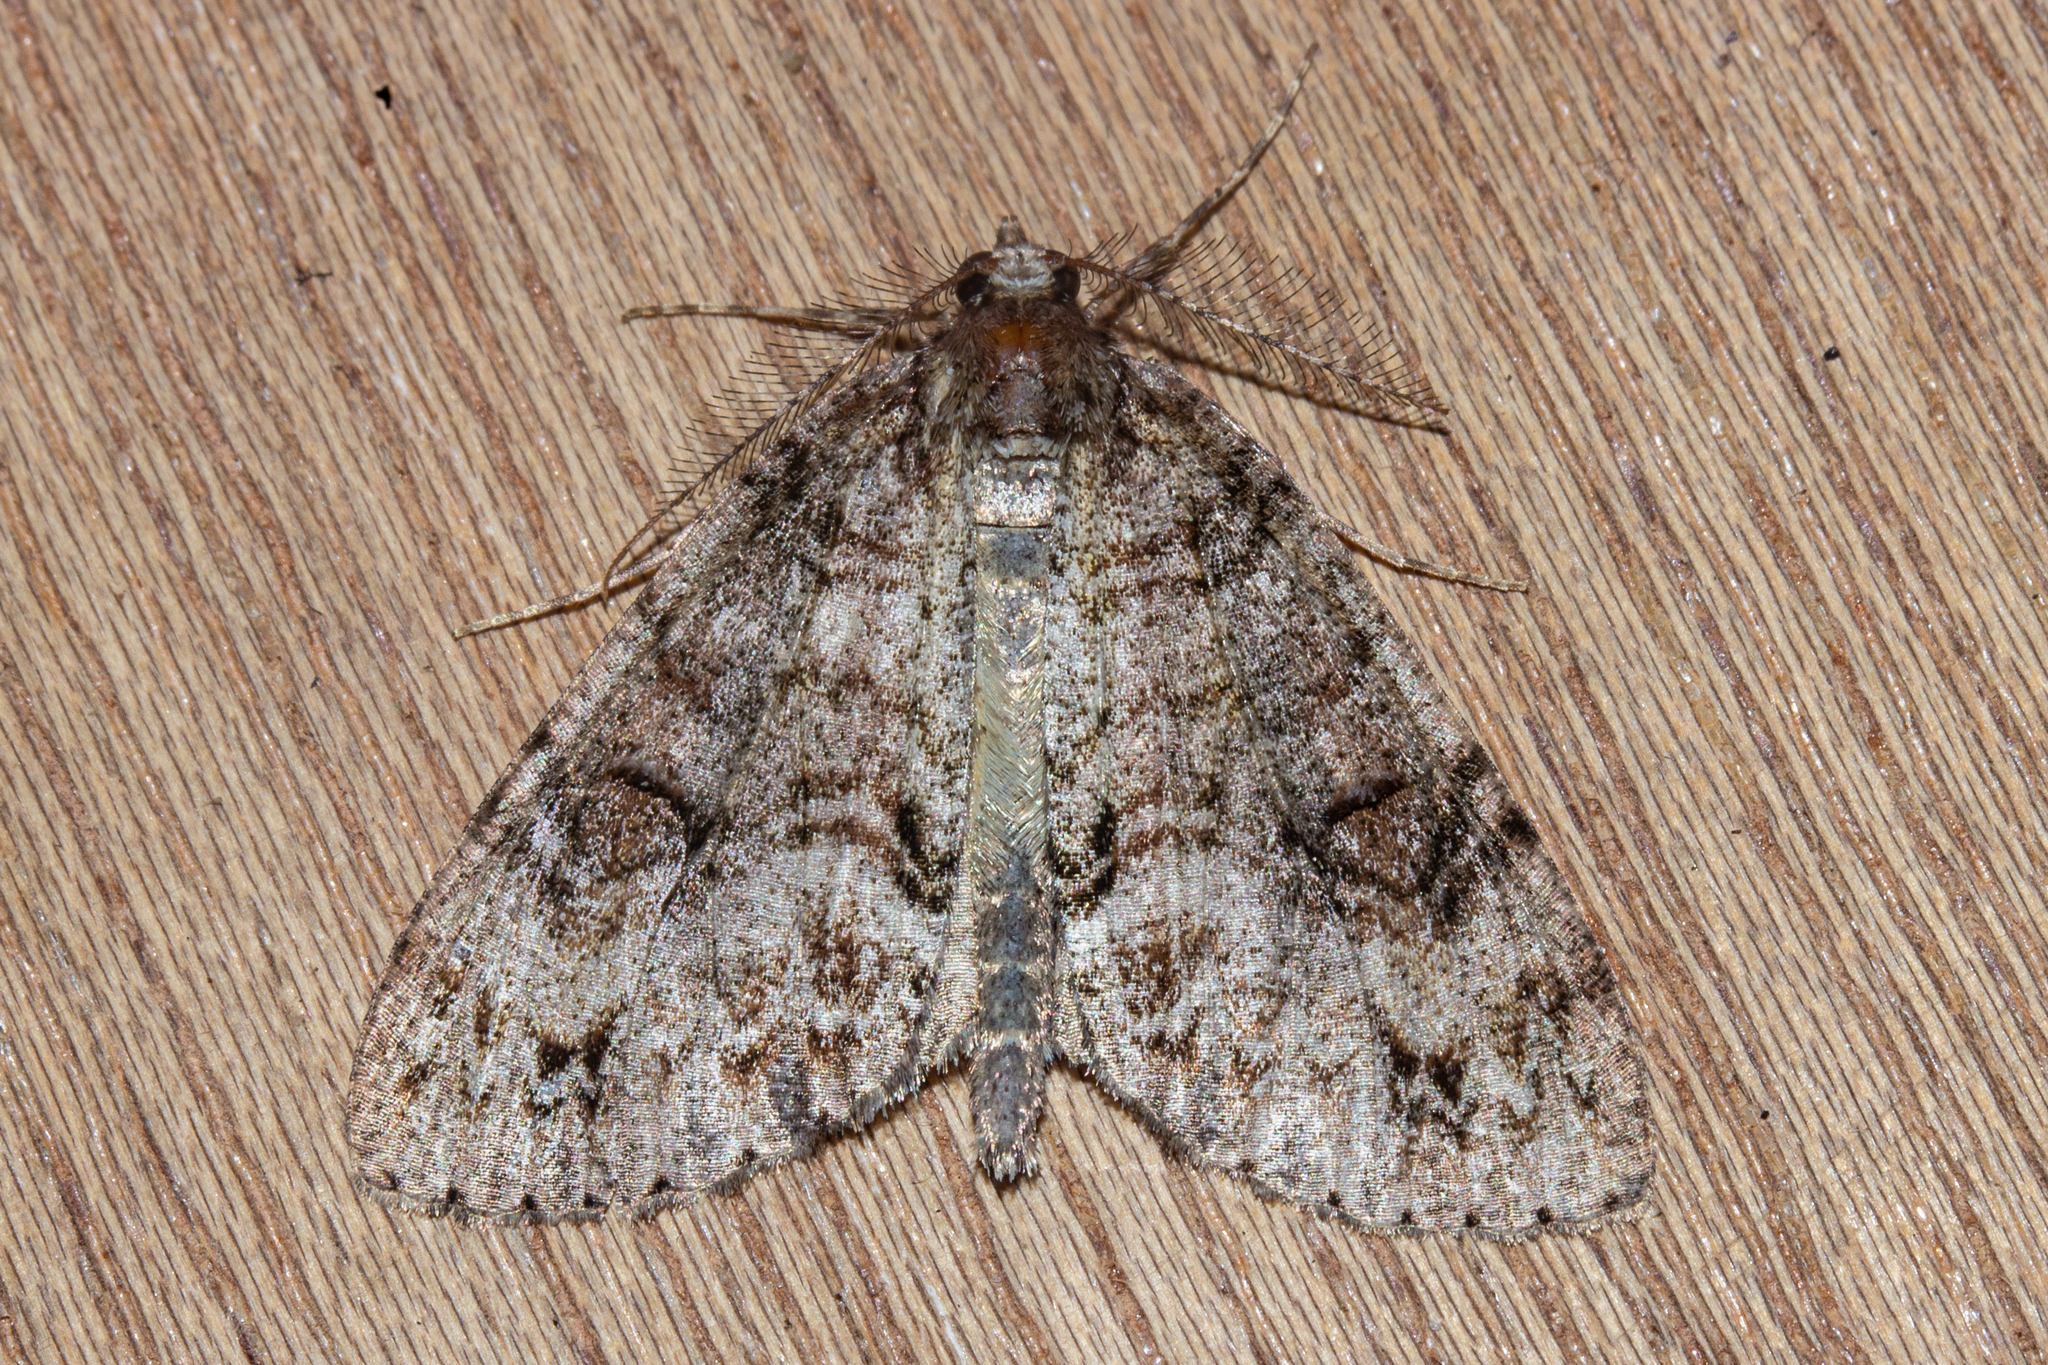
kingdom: Animalia
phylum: Arthropoda
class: Insecta
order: Lepidoptera
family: Geometridae
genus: Pseudocoremia
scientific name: Pseudocoremia suavis
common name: Common forest looper
